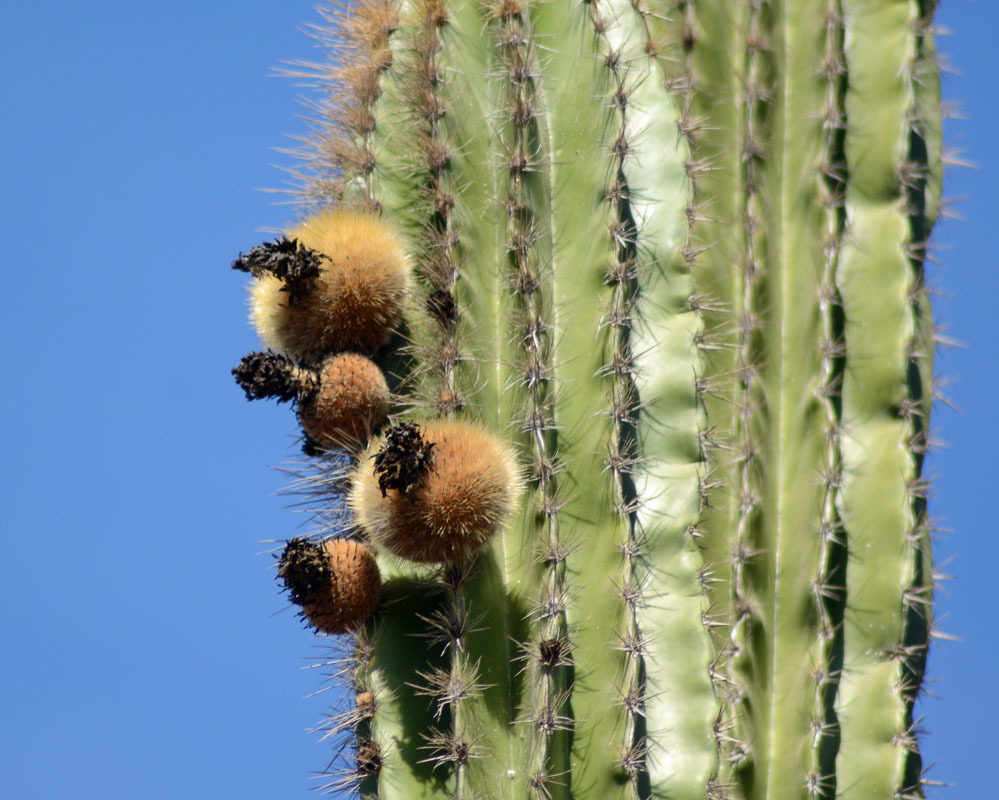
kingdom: Plantae
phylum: Tracheophyta
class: Magnoliopsida
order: Caryophyllales
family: Cactaceae
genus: Pachycereus
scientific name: Pachycereus pecten-aboriginum
